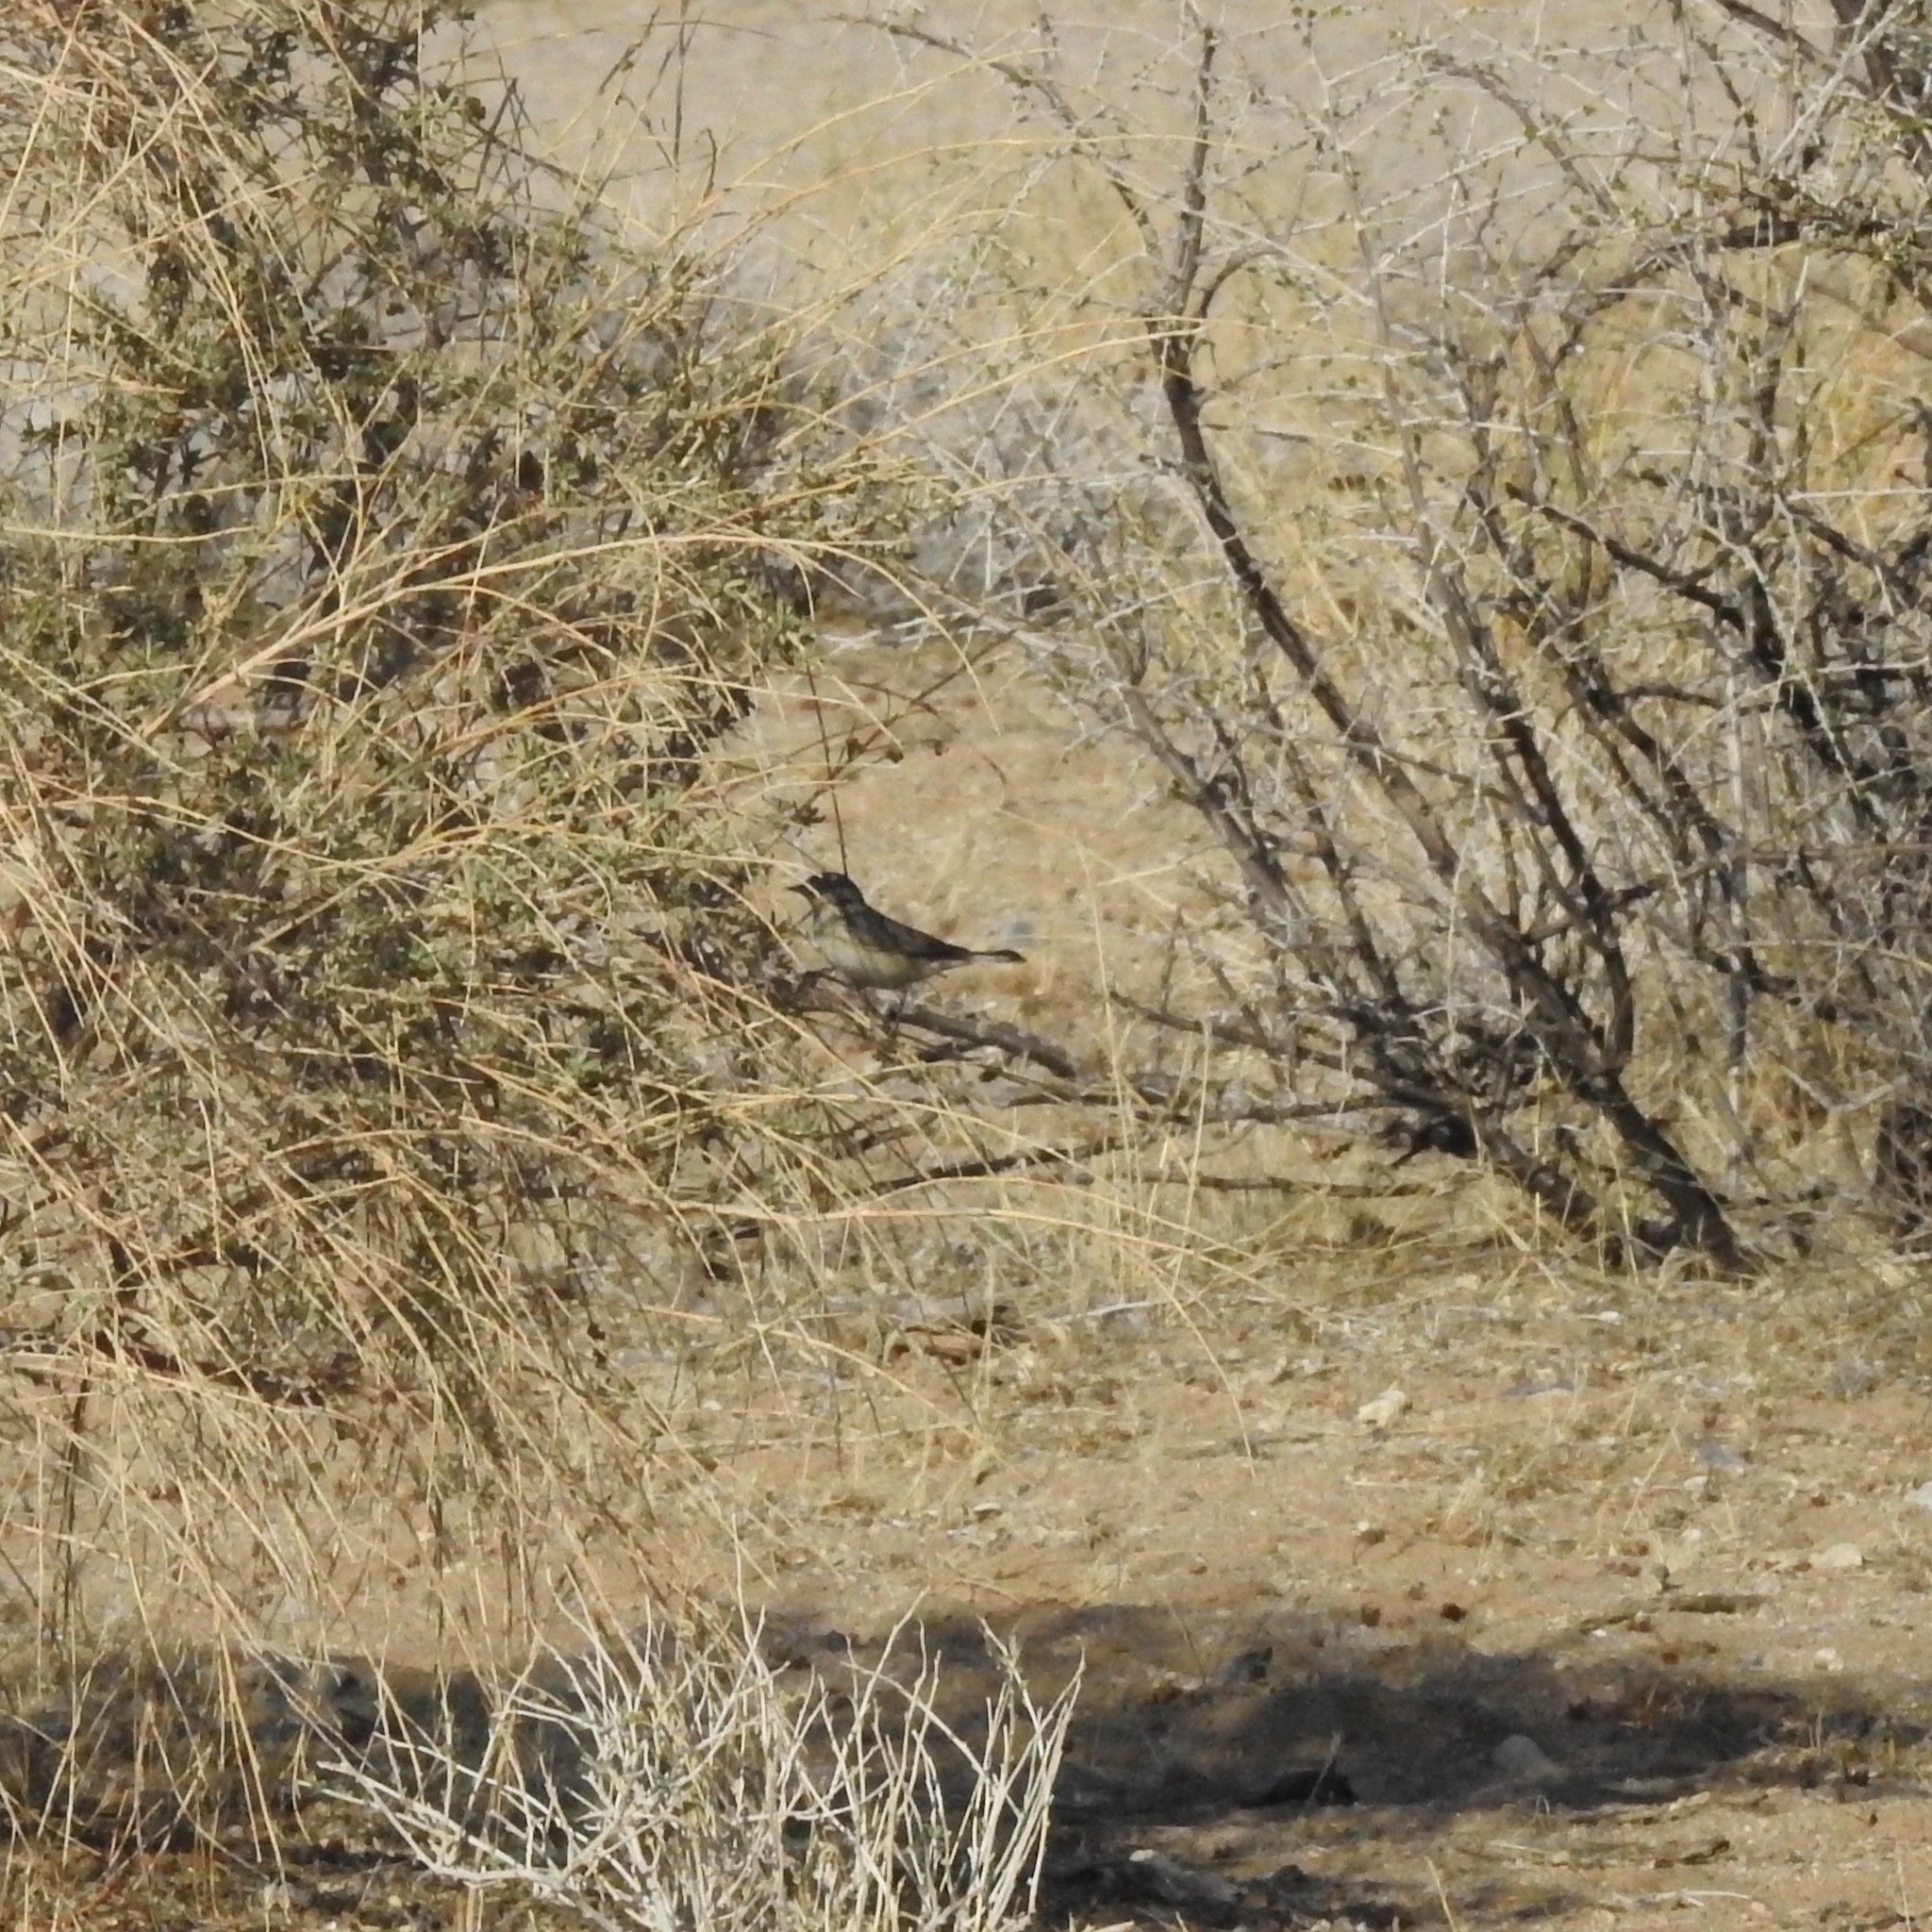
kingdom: Animalia
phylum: Chordata
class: Aves
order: Passeriformes
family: Parulidae
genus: Leiothlypis
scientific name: Leiothlypis luciae
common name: Lucy's warbler
